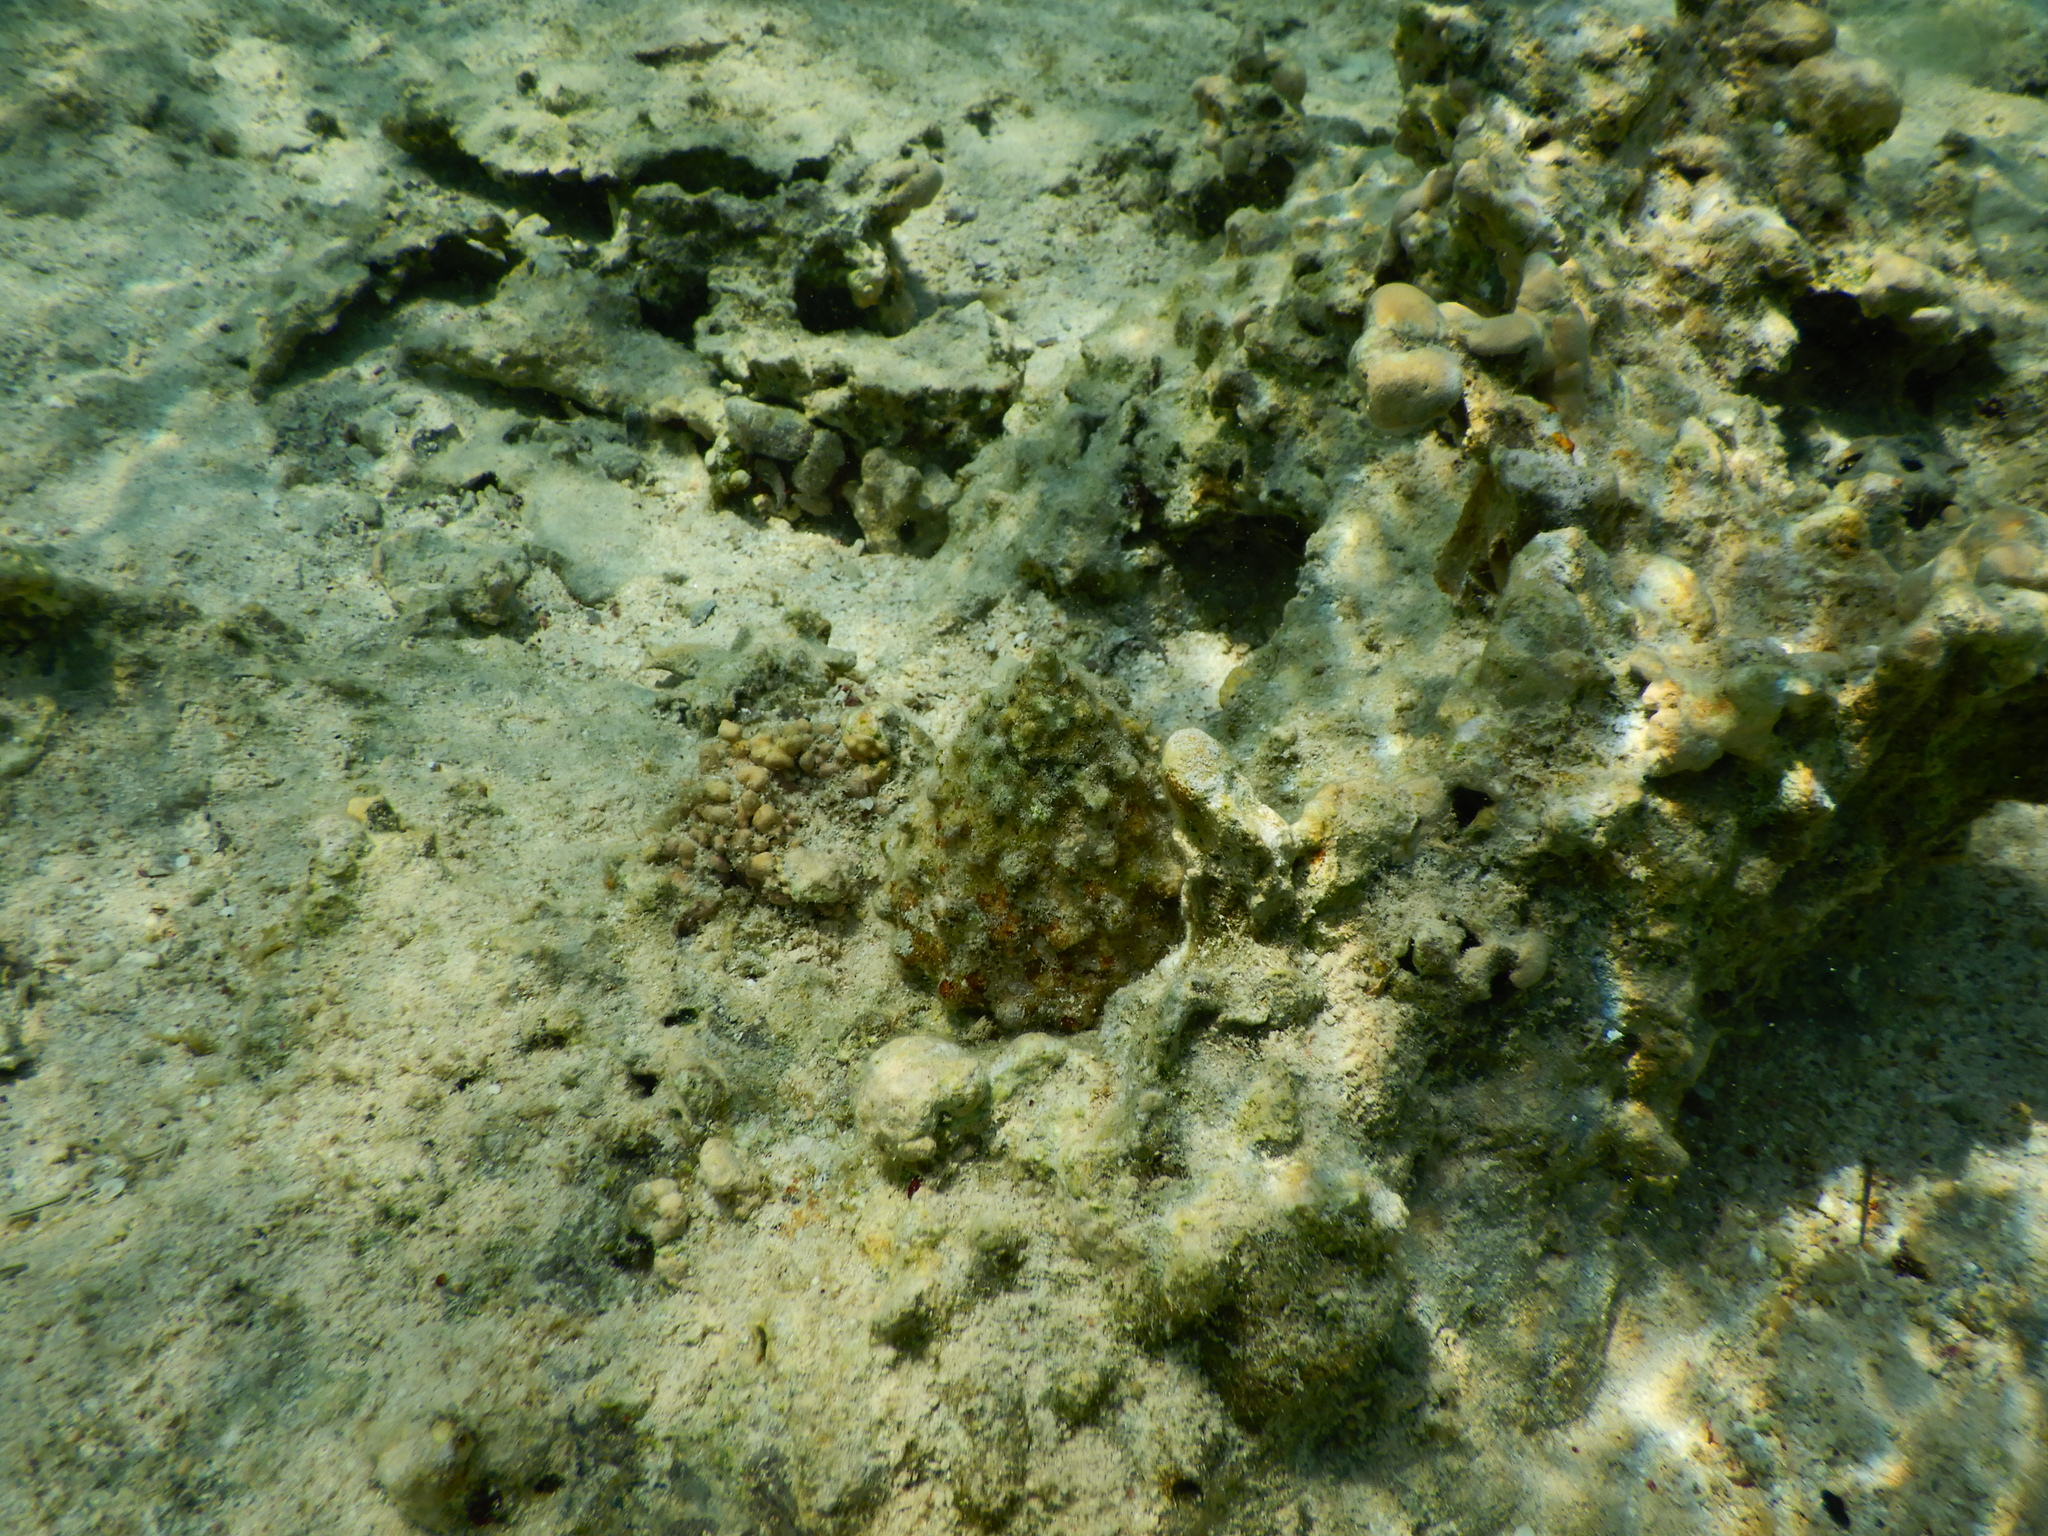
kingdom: Animalia
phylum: Mollusca
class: Gastropoda
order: Trochida
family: Tegulidae
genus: Tectus
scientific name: Tectus dentatus
